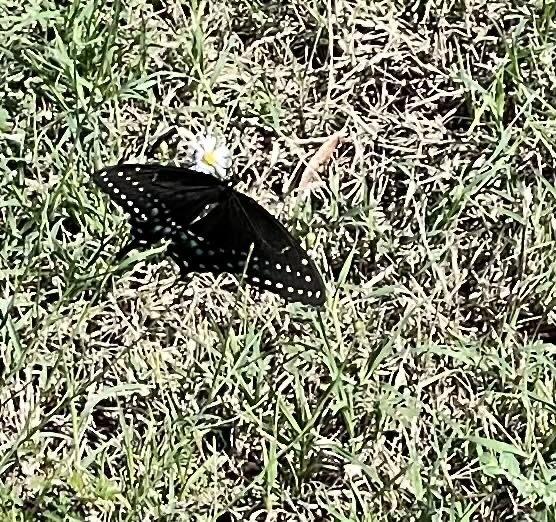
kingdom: Animalia
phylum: Arthropoda
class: Insecta
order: Lepidoptera
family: Papilionidae
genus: Papilio
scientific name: Papilio polyxenes
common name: Black swallowtail
